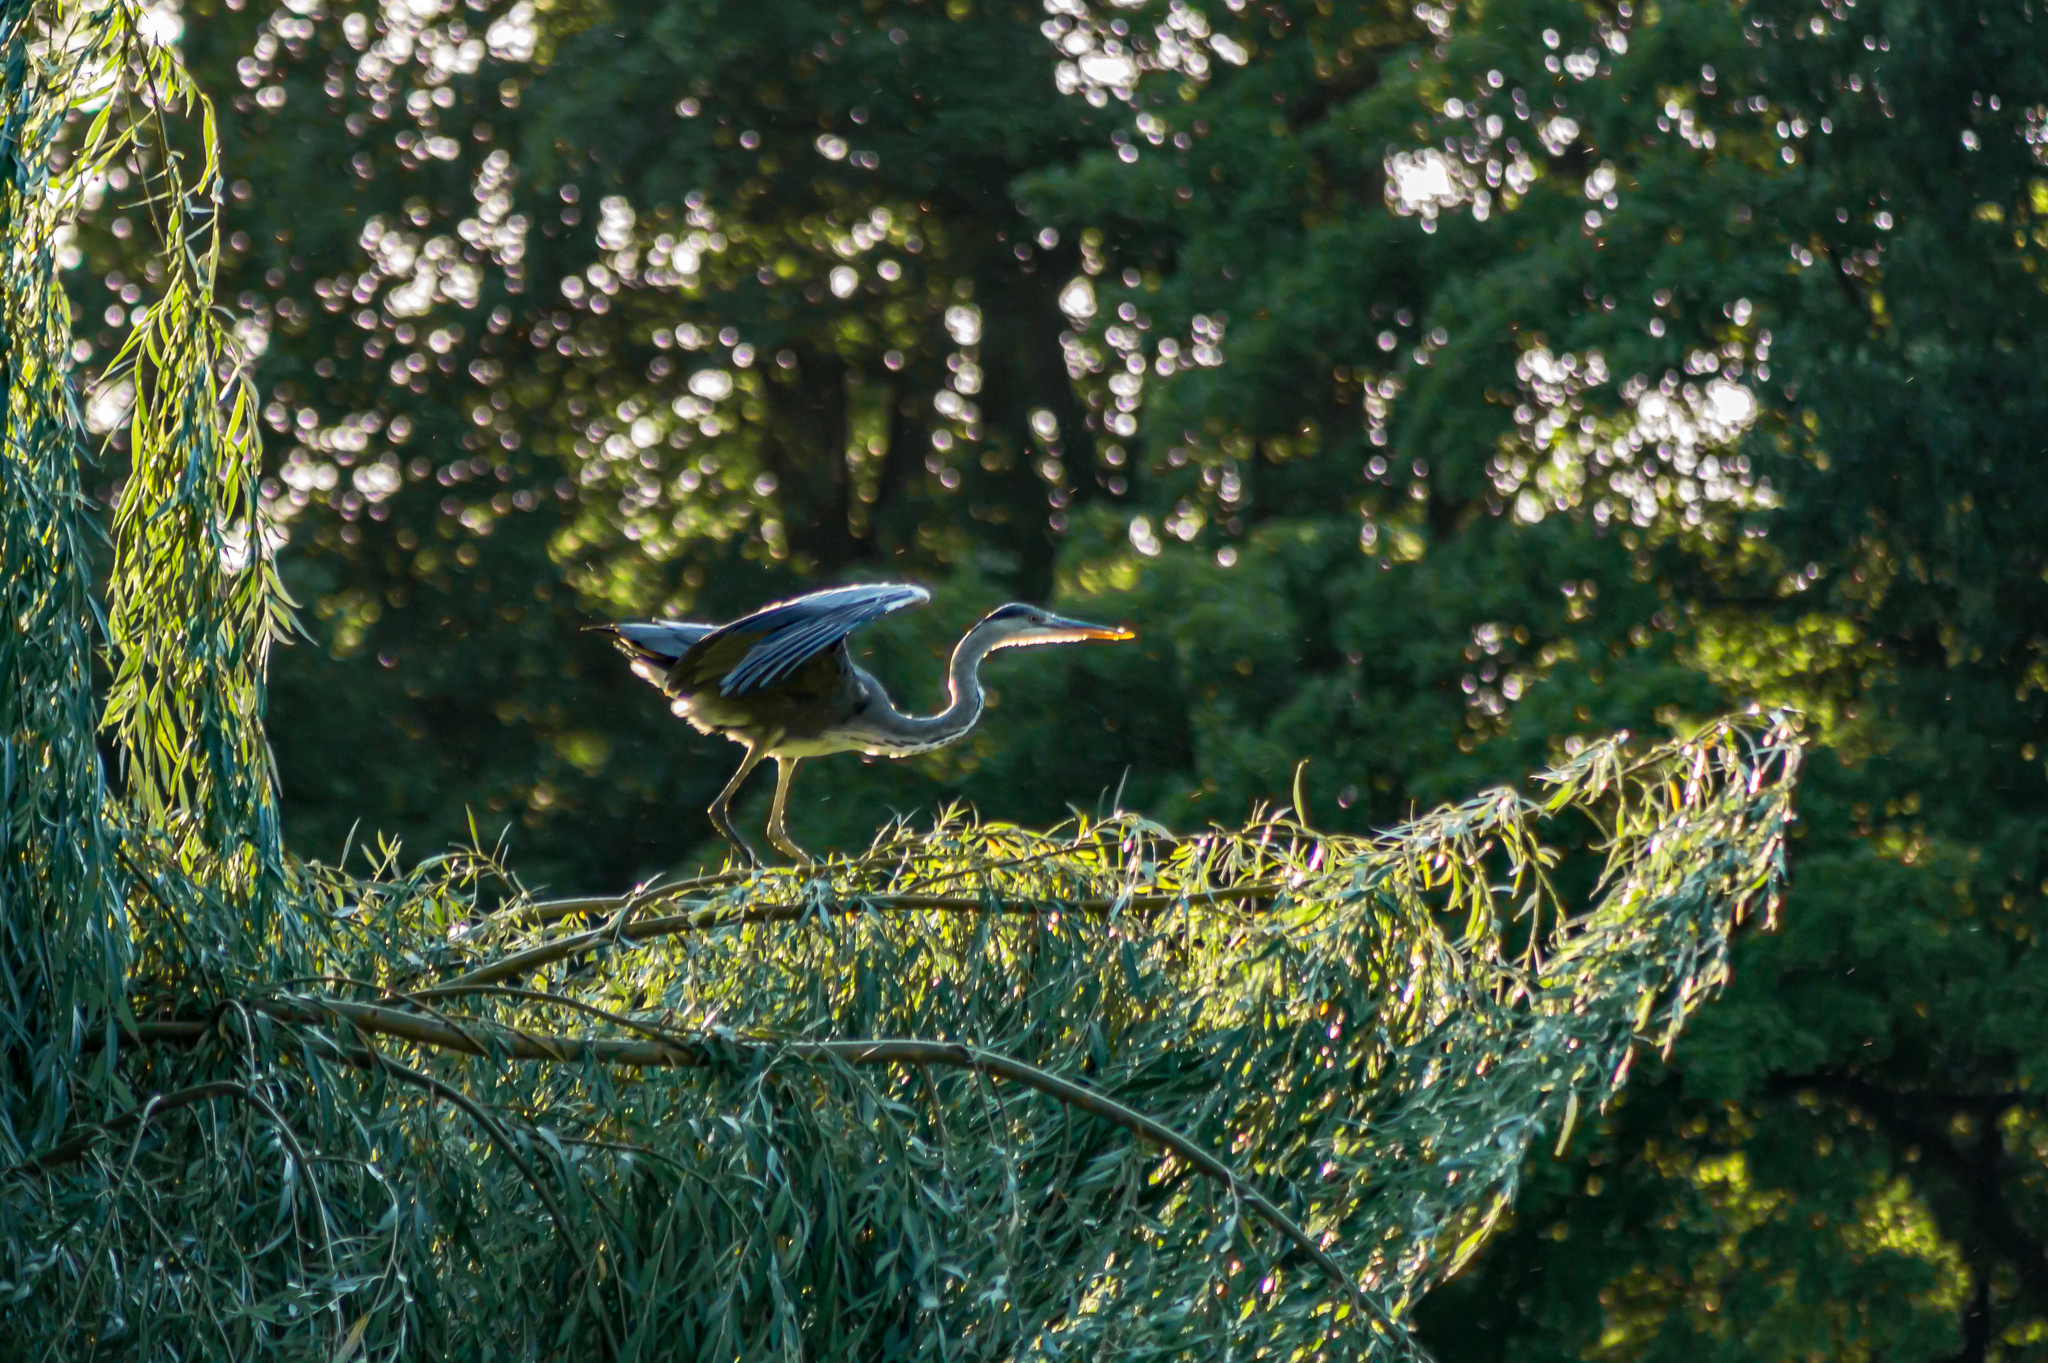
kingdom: Animalia
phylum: Chordata
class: Aves
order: Pelecaniformes
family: Ardeidae
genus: Ardea
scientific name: Ardea cinerea
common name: Grey heron
